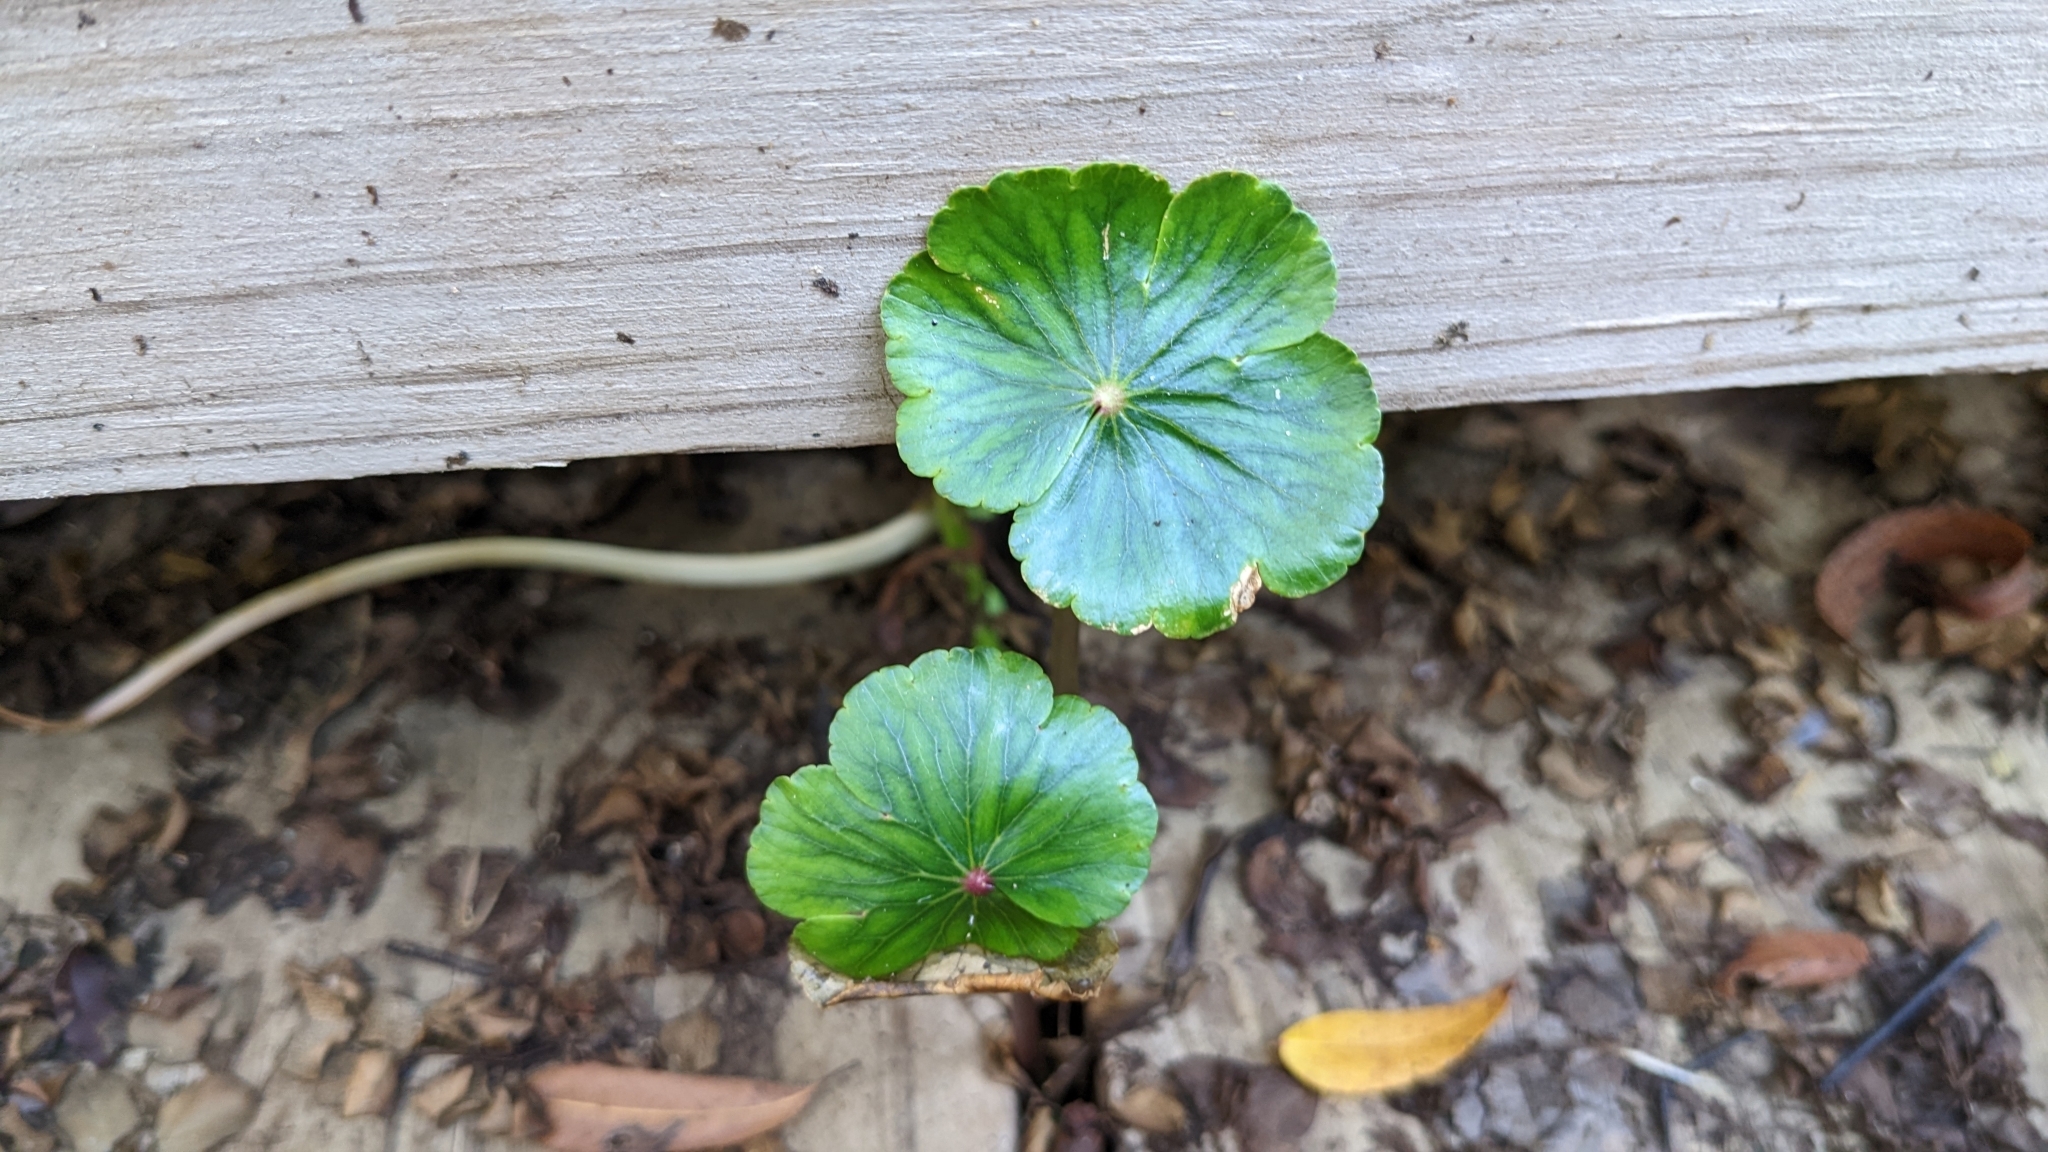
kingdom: Plantae
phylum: Tracheophyta
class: Magnoliopsida
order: Apiales
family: Araliaceae
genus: Hydrocotyle
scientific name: Hydrocotyle ranunculoides
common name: Floating pennywort
